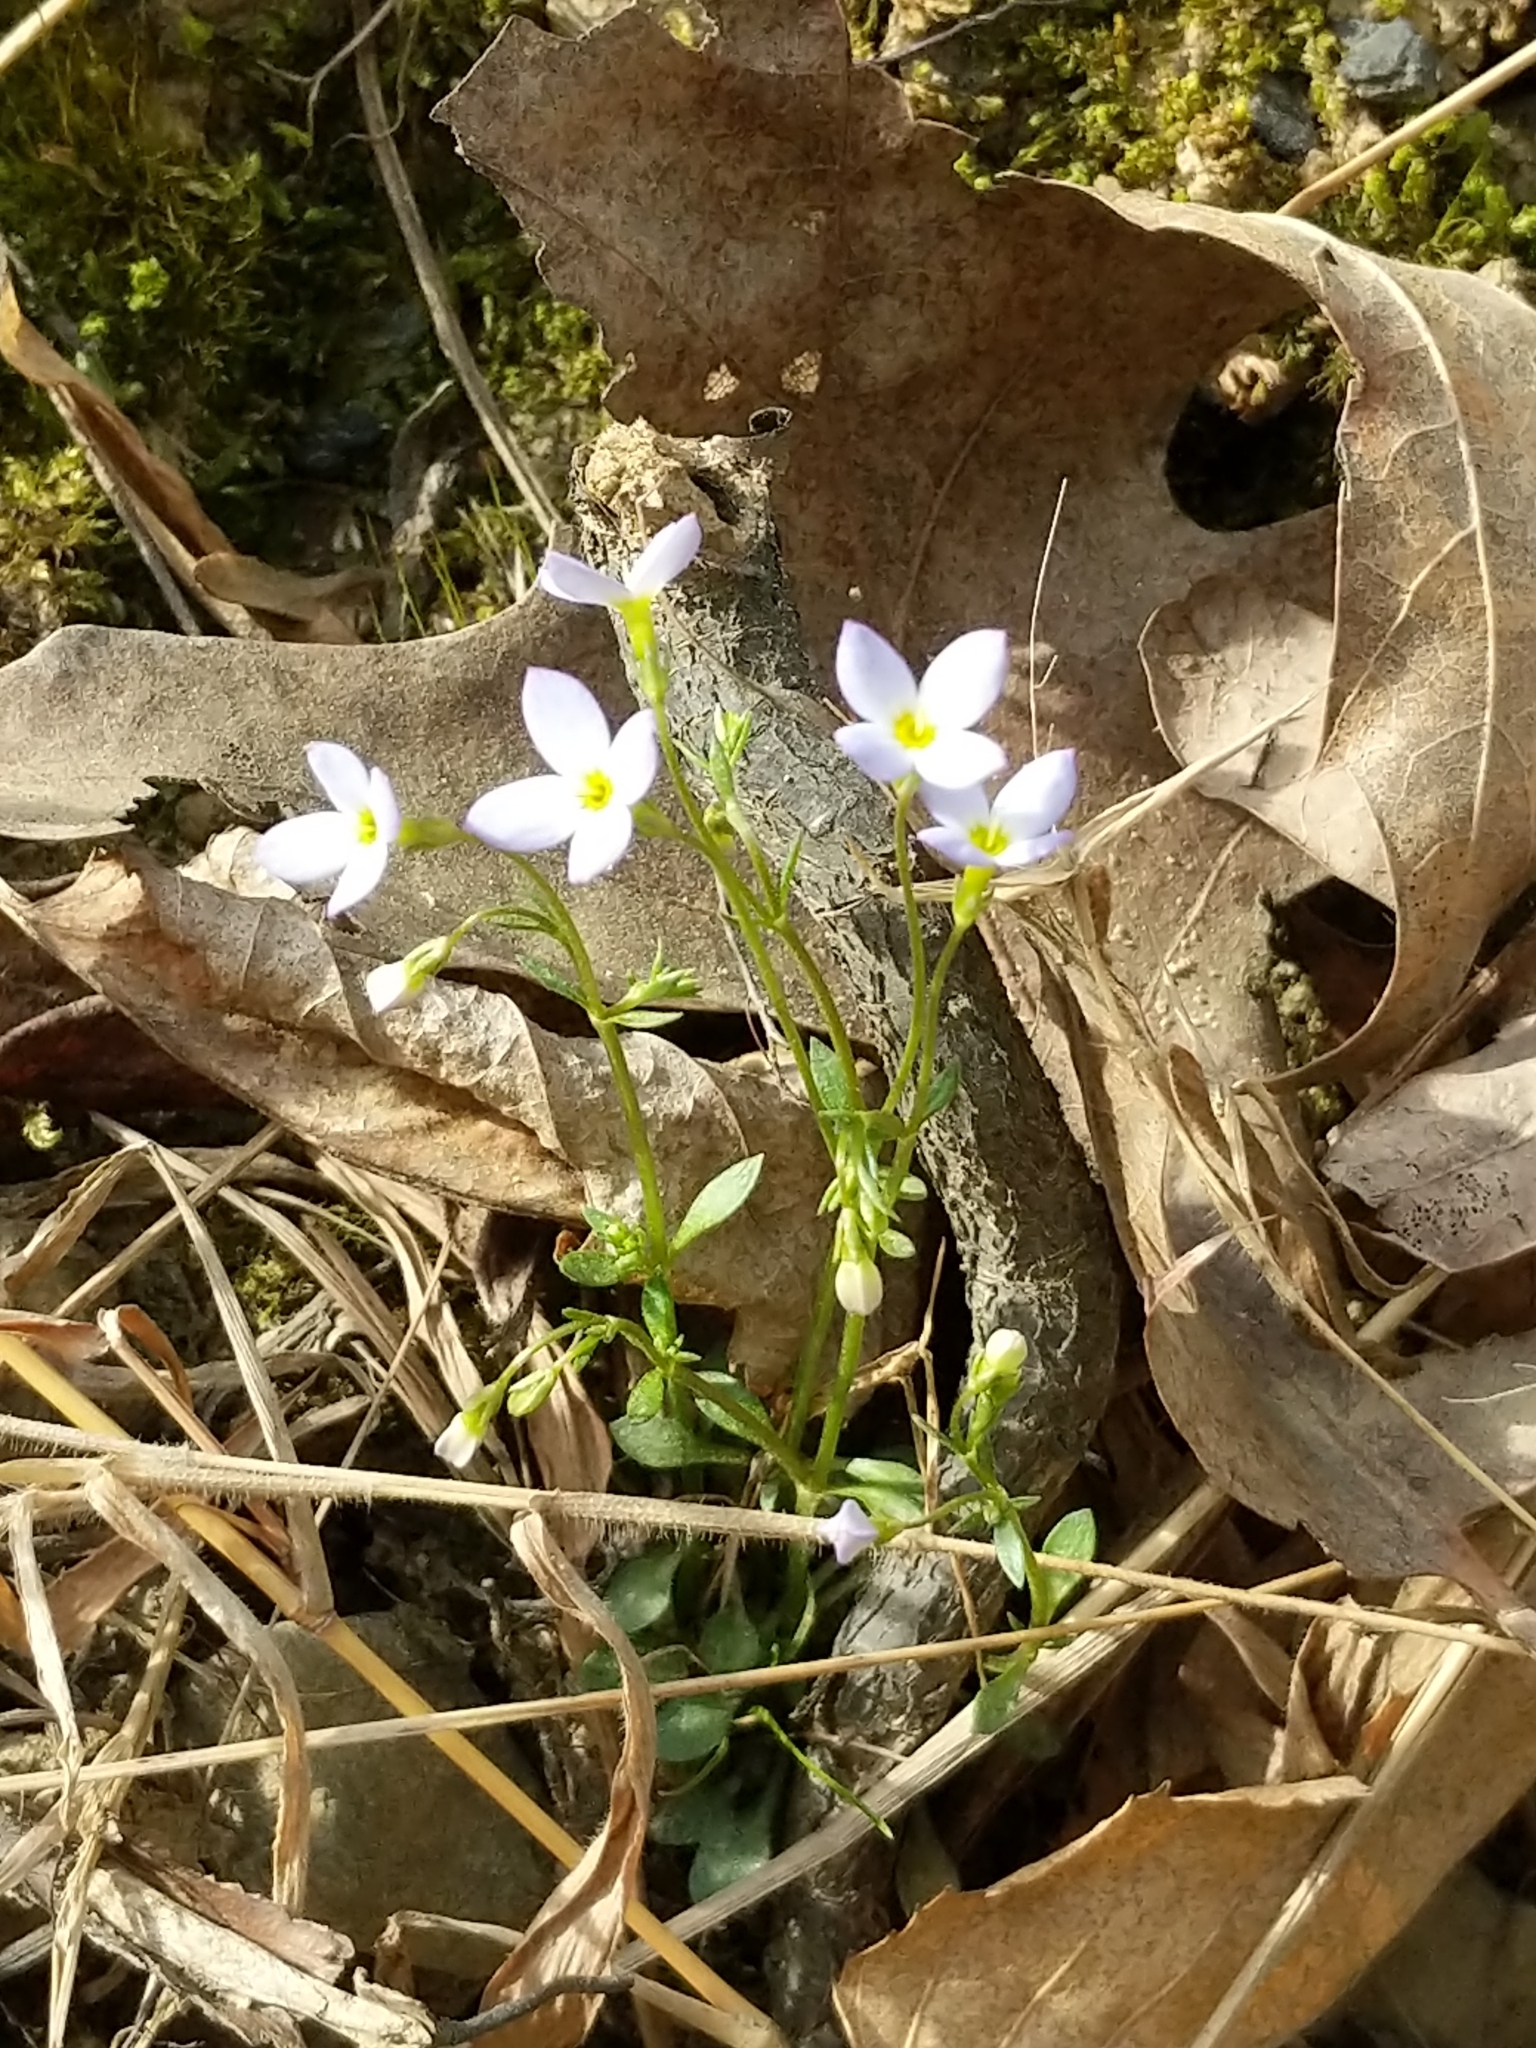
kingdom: Plantae
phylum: Tracheophyta
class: Magnoliopsida
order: Gentianales
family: Rubiaceae
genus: Houstonia
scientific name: Houstonia caerulea
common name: Bluets
